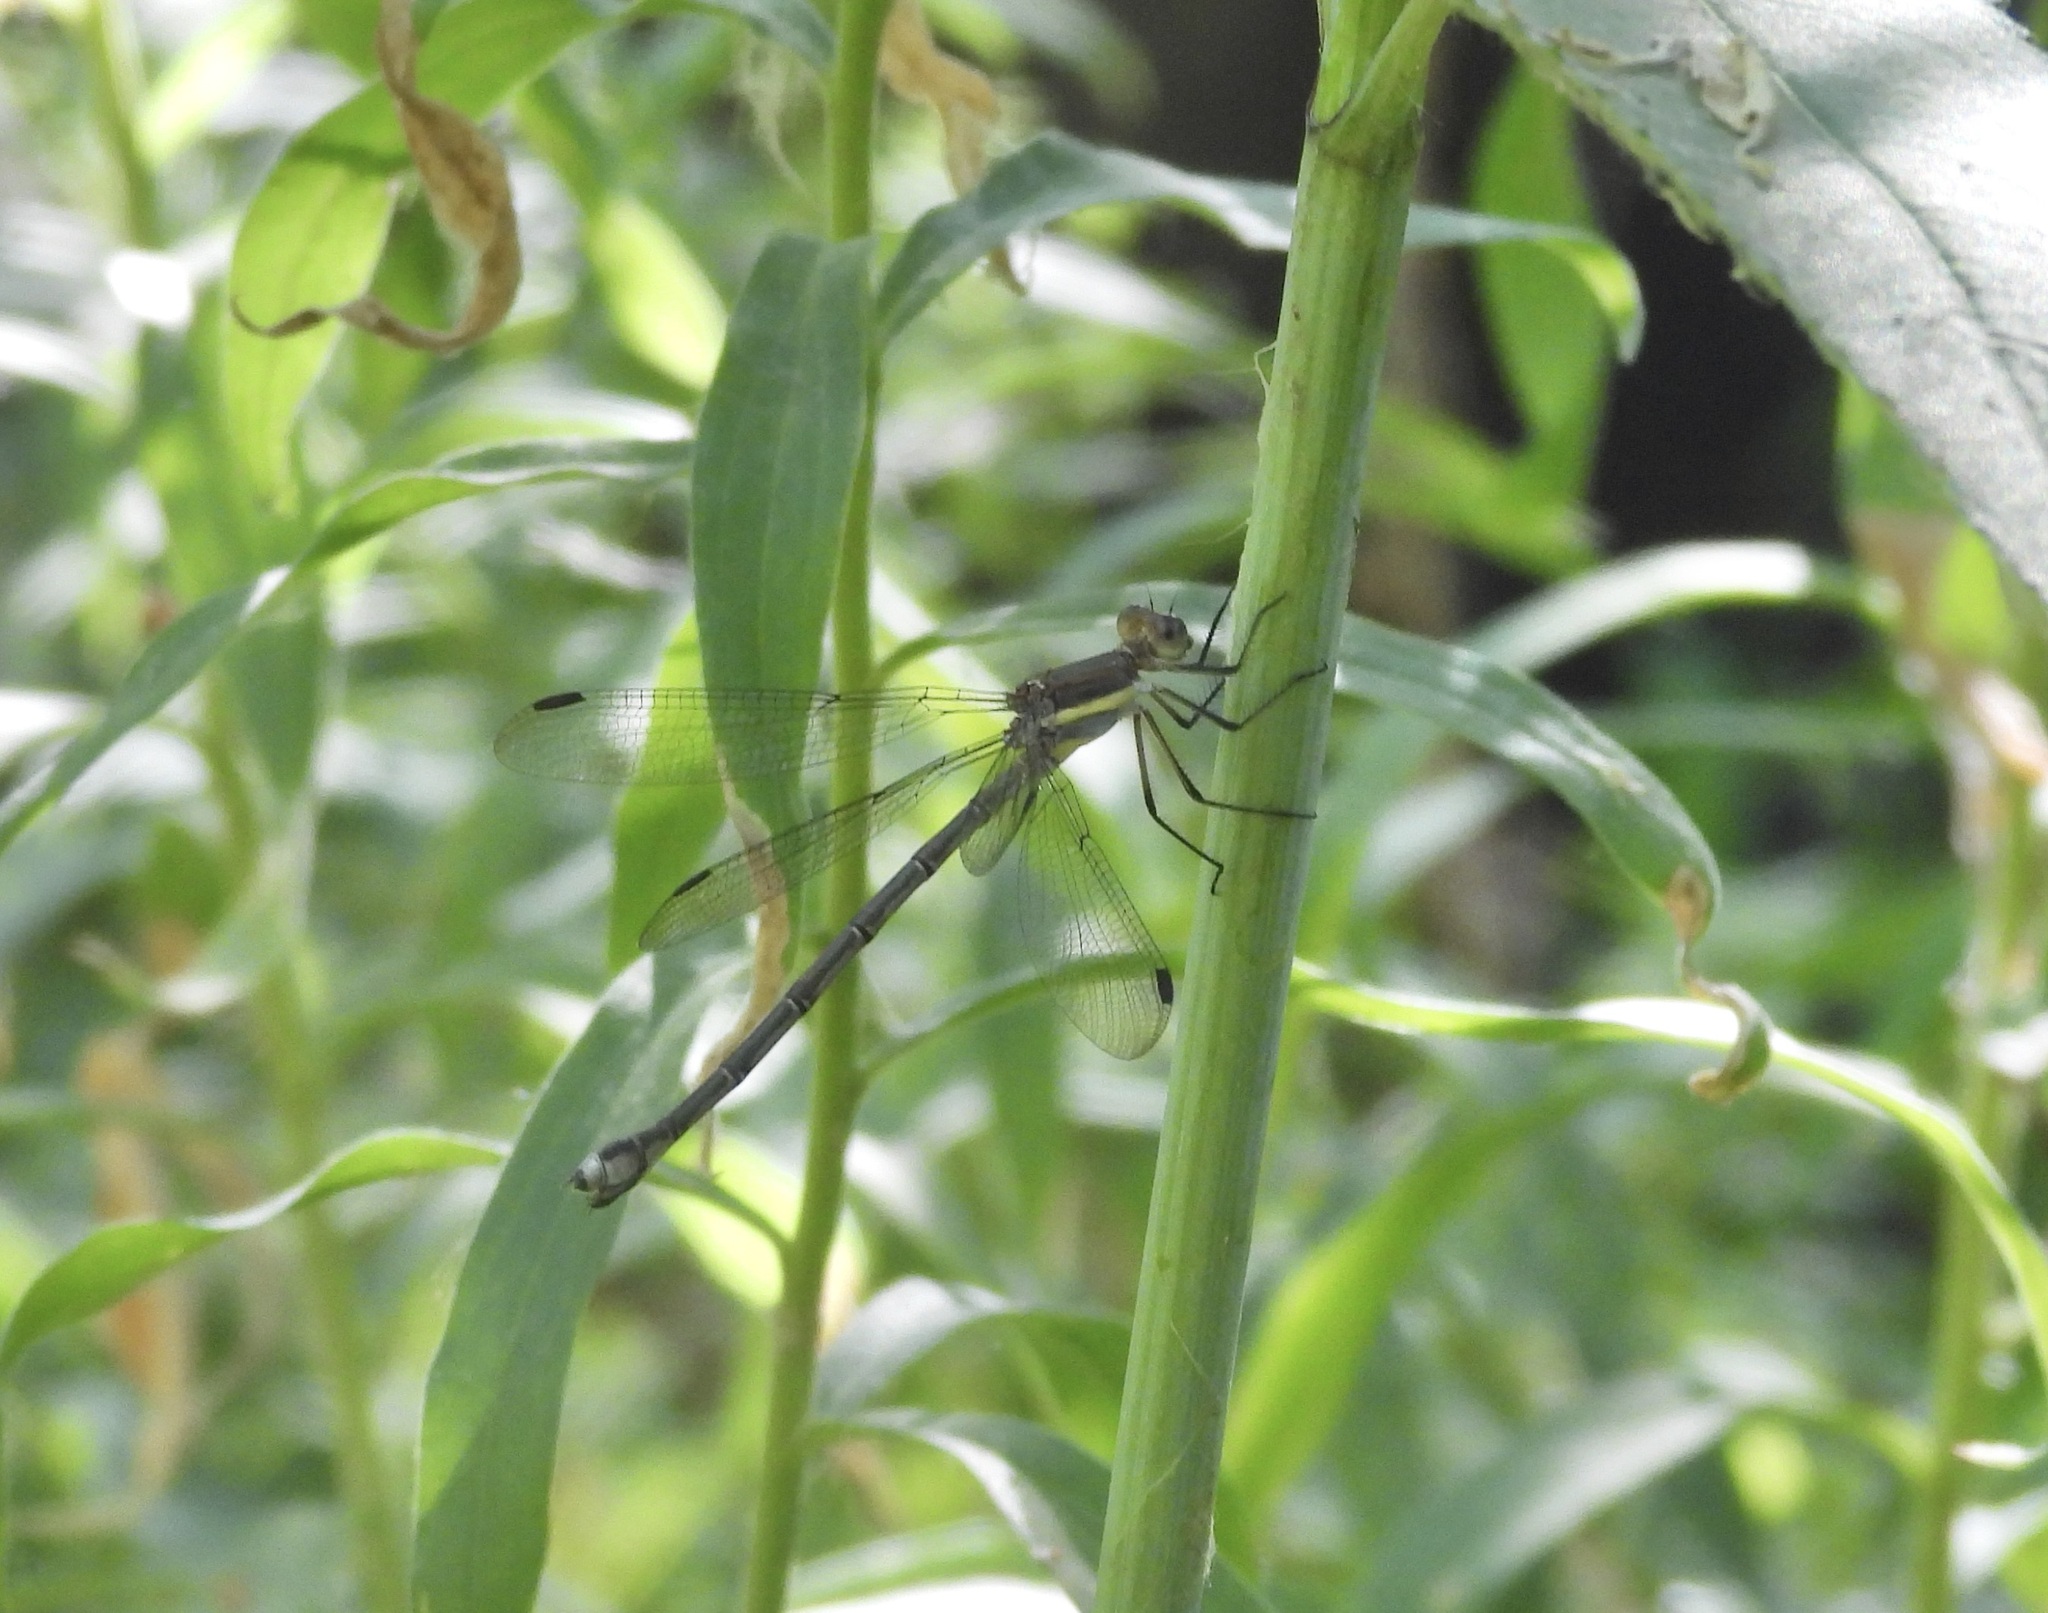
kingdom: Animalia
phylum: Arthropoda
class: Insecta
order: Odonata
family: Lestidae
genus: Archilestes
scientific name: Archilestes grandis
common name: Great spreadwing
